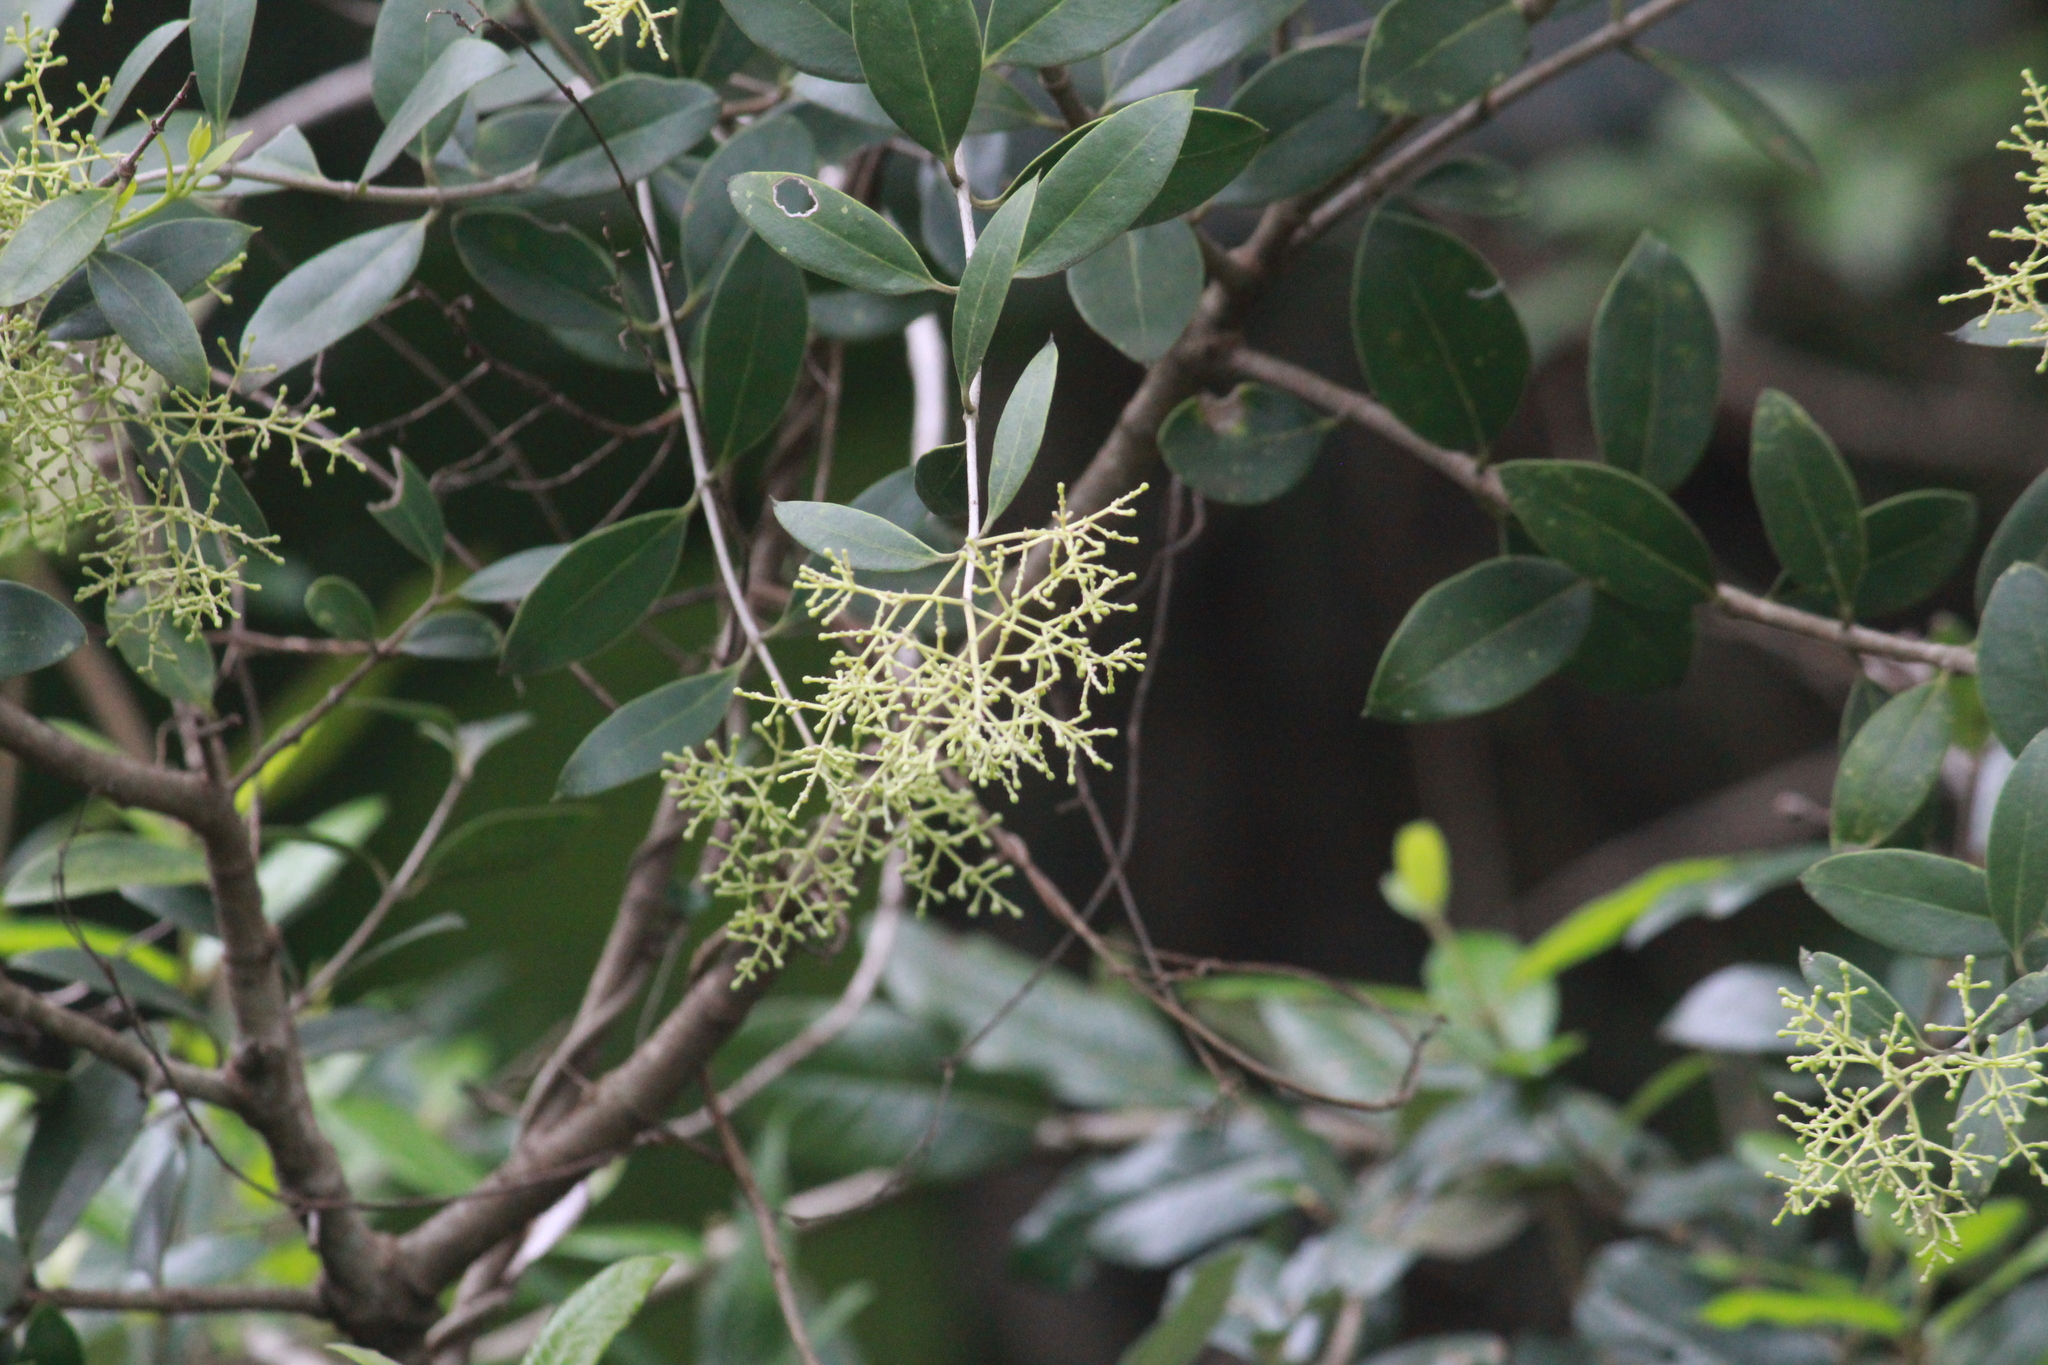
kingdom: Plantae
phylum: Tracheophyta
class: Magnoliopsida
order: Lamiales
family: Oleaceae
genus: Olea
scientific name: Olea woodiana
